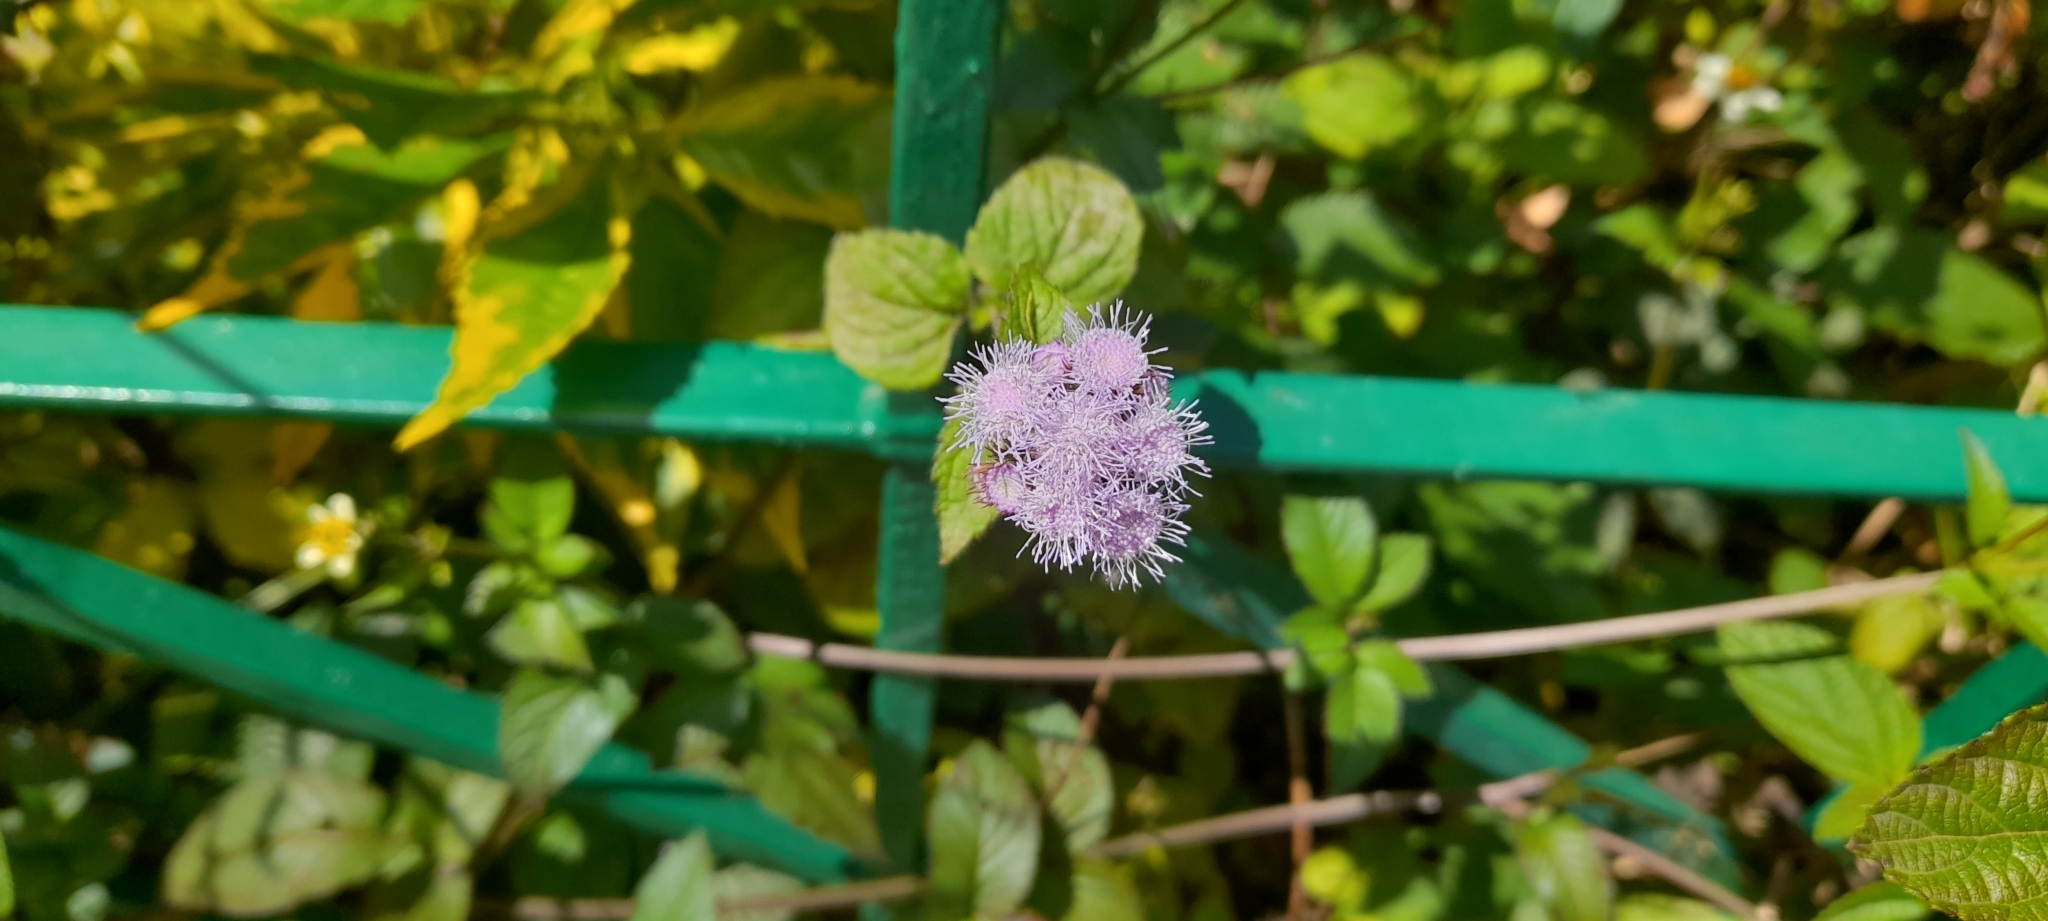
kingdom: Plantae
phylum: Tracheophyta
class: Magnoliopsida
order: Asterales
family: Asteraceae
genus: Ageratum
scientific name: Ageratum houstonianum
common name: Bluemink
